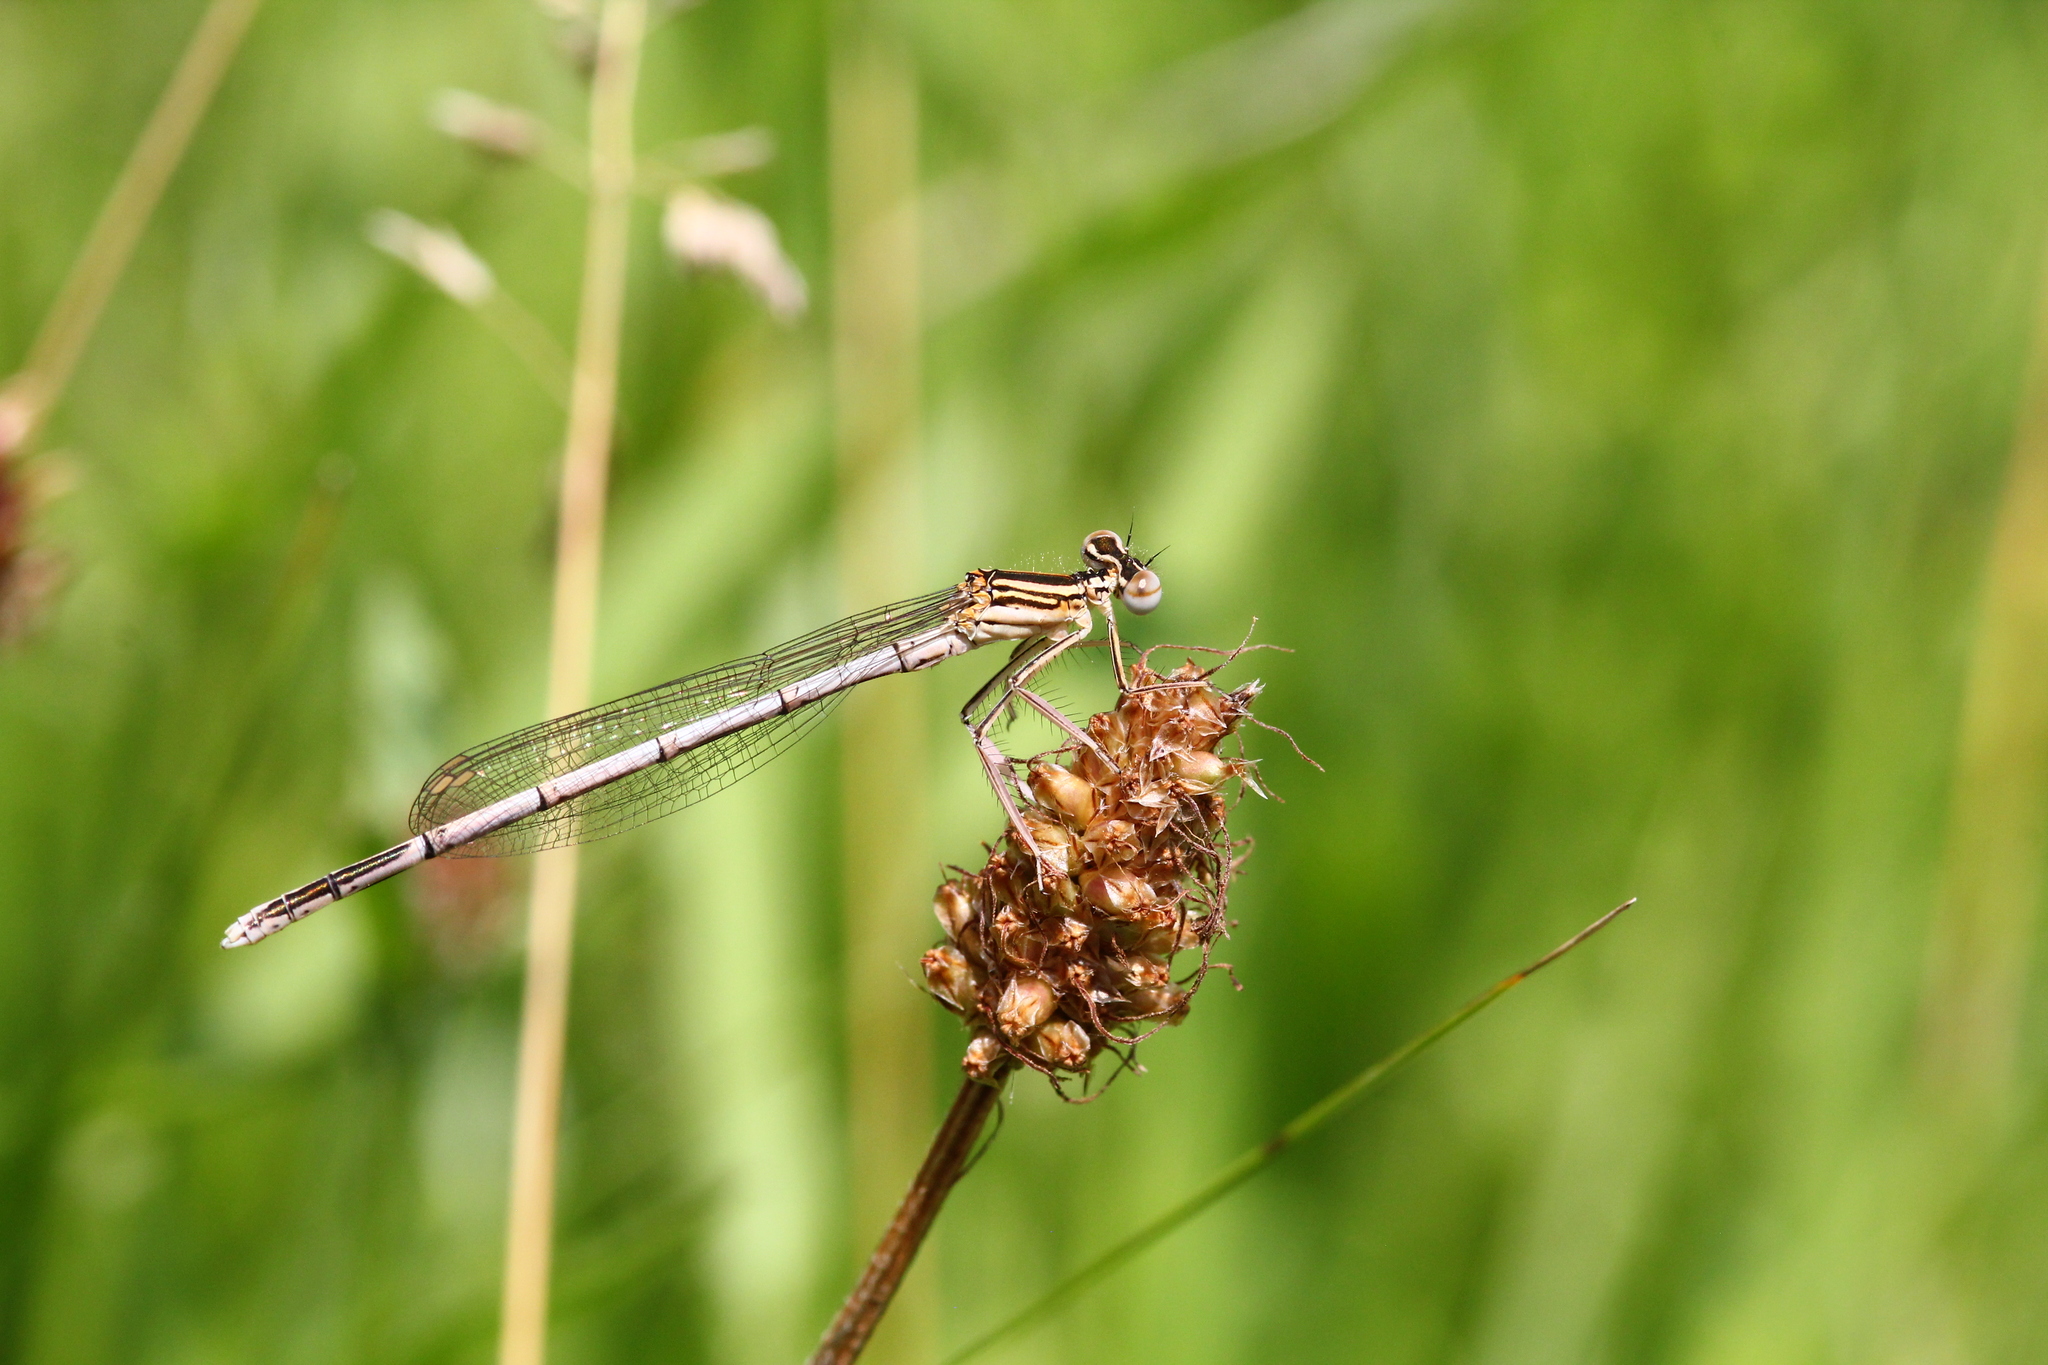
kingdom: Animalia
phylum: Arthropoda
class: Insecta
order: Odonata
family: Platycnemididae
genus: Platycnemis
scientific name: Platycnemis pennipes
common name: White-legged damselfly
